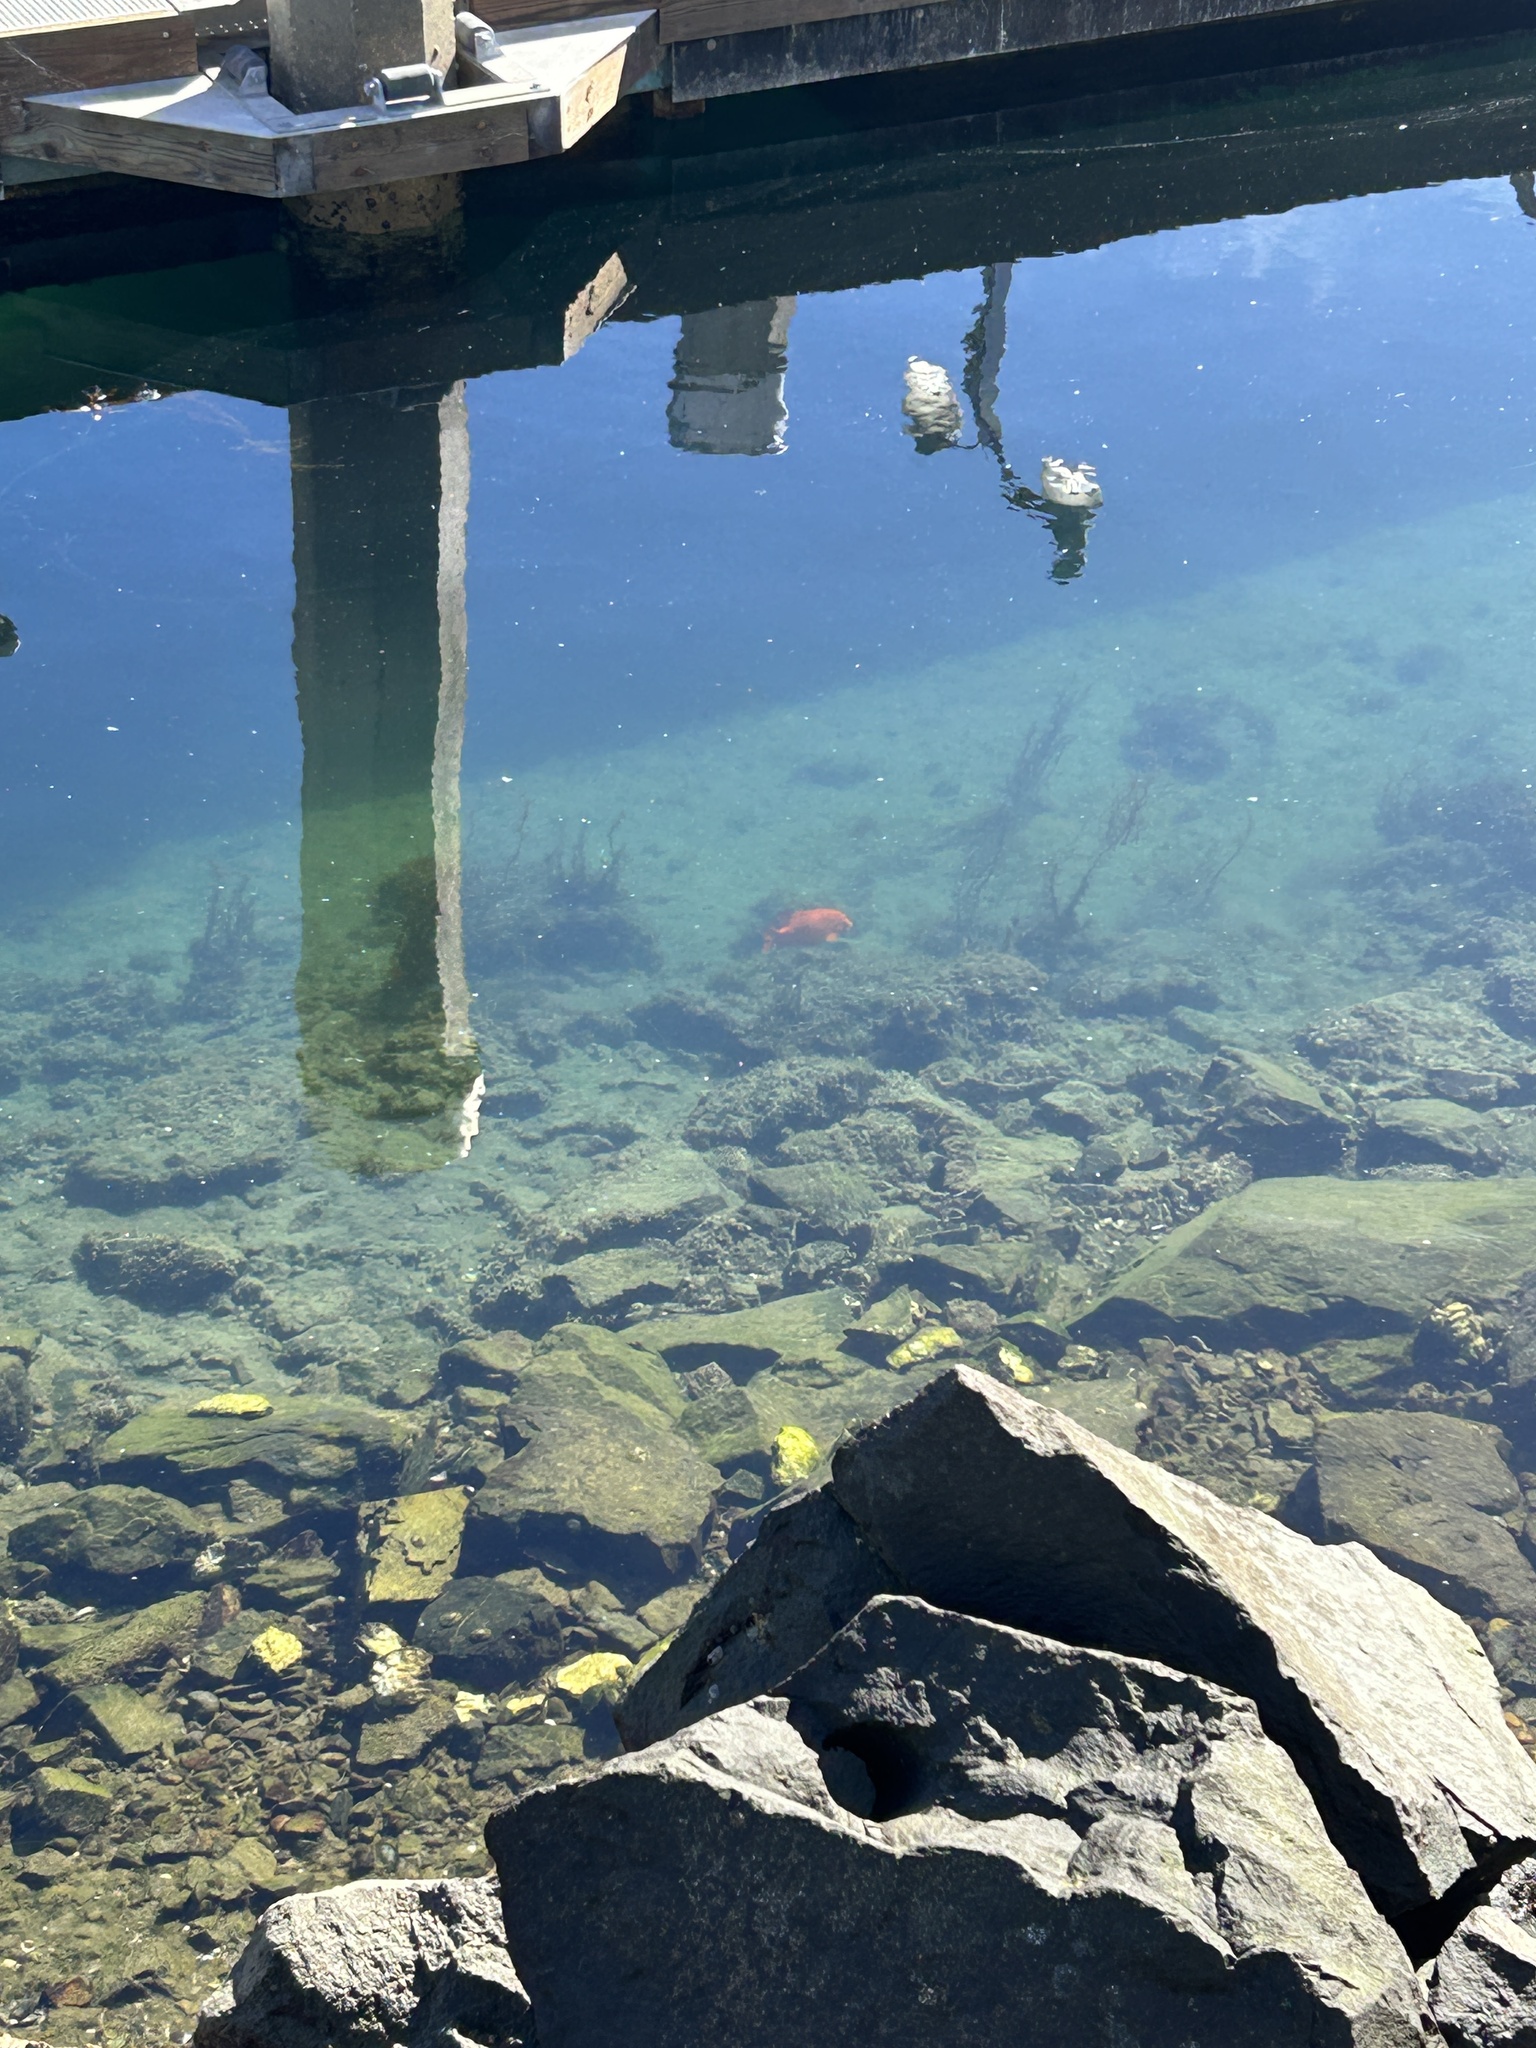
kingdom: Animalia
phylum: Chordata
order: Perciformes
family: Pomacentridae
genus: Hypsypops
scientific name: Hypsypops rubicundus
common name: Garibaldi
